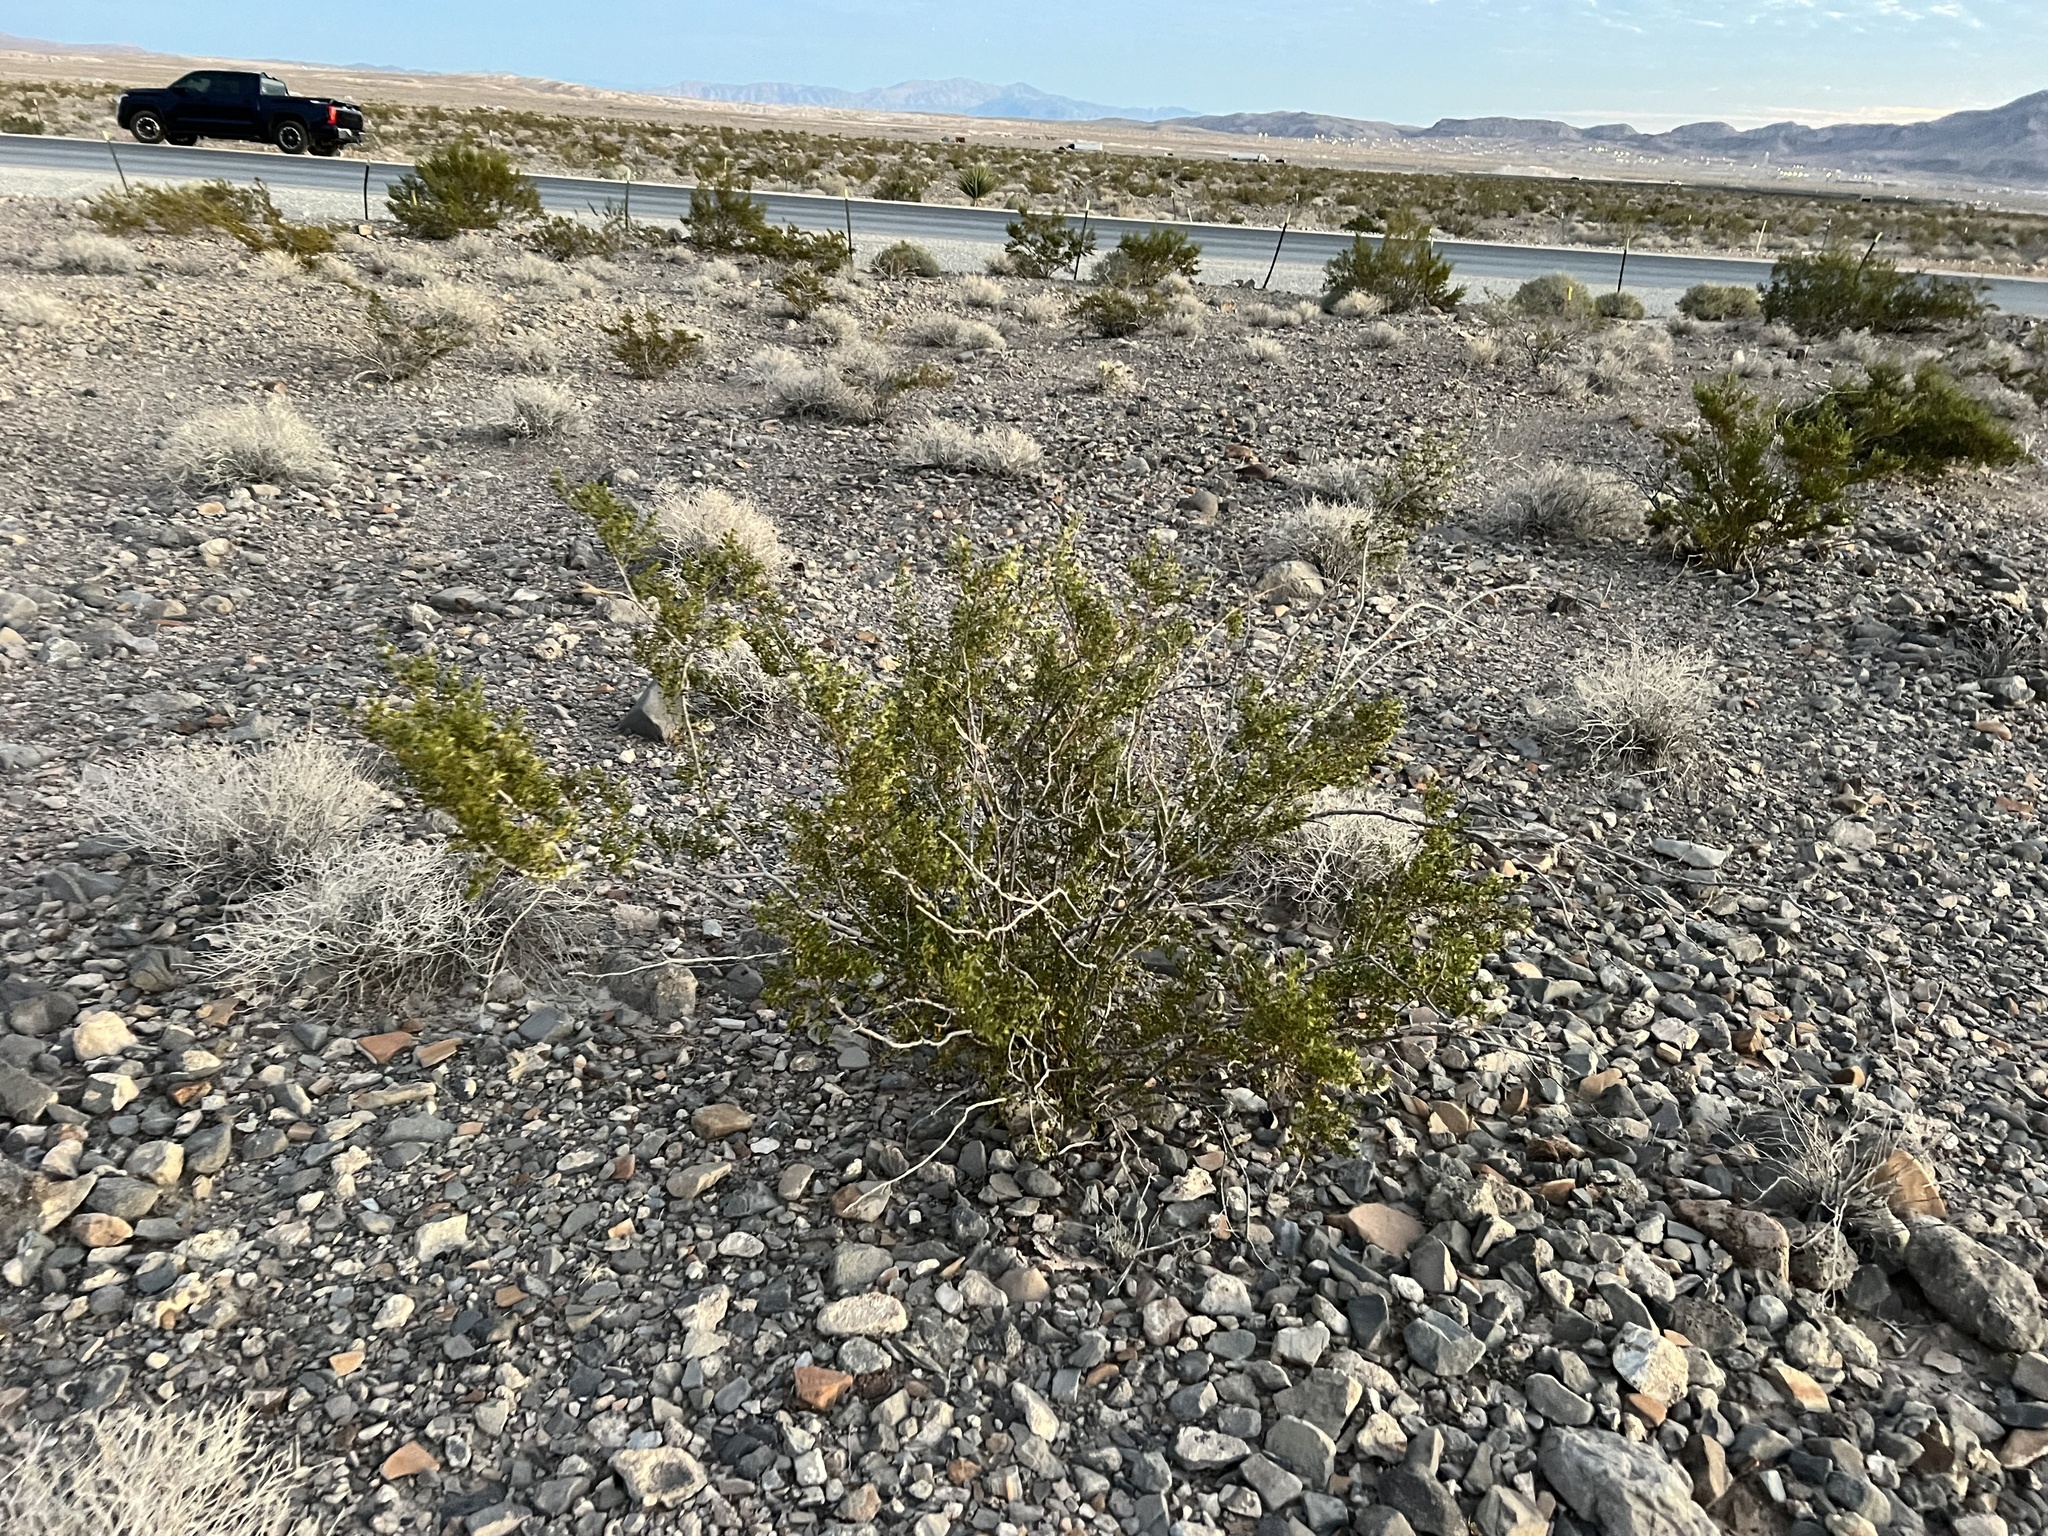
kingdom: Plantae
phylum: Tracheophyta
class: Magnoliopsida
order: Zygophyllales
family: Zygophyllaceae
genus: Larrea
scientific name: Larrea tridentata
